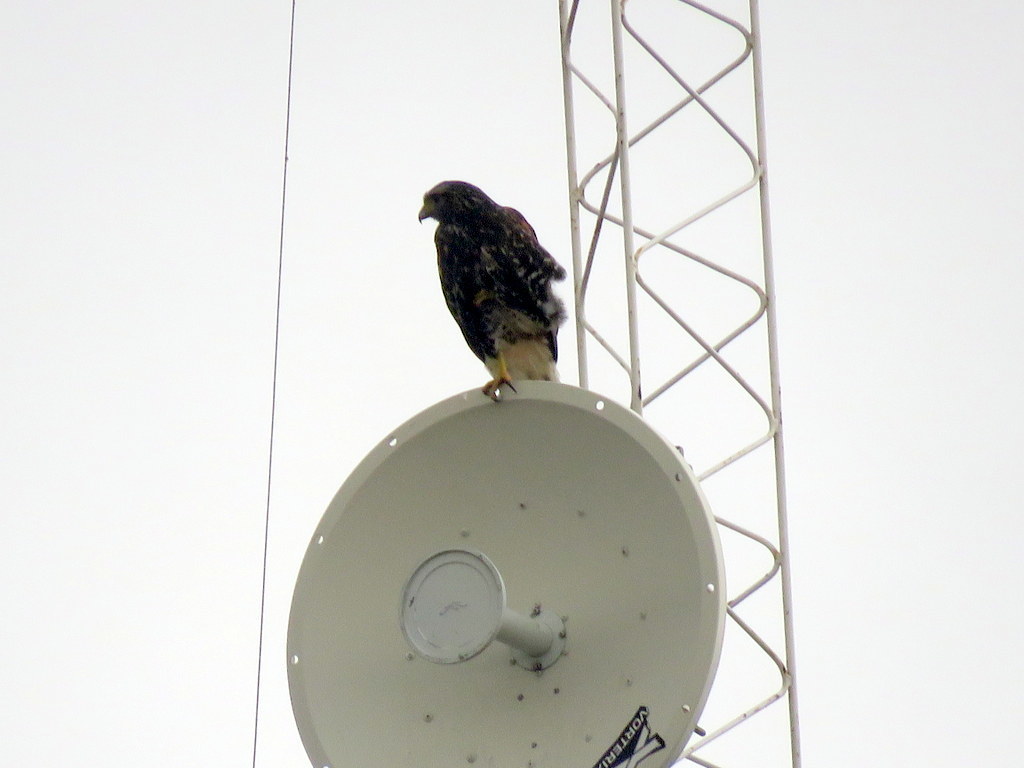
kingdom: Animalia
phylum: Chordata
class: Aves
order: Accipitriformes
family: Accipitridae
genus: Parabuteo
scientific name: Parabuteo unicinctus
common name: Harris's hawk
